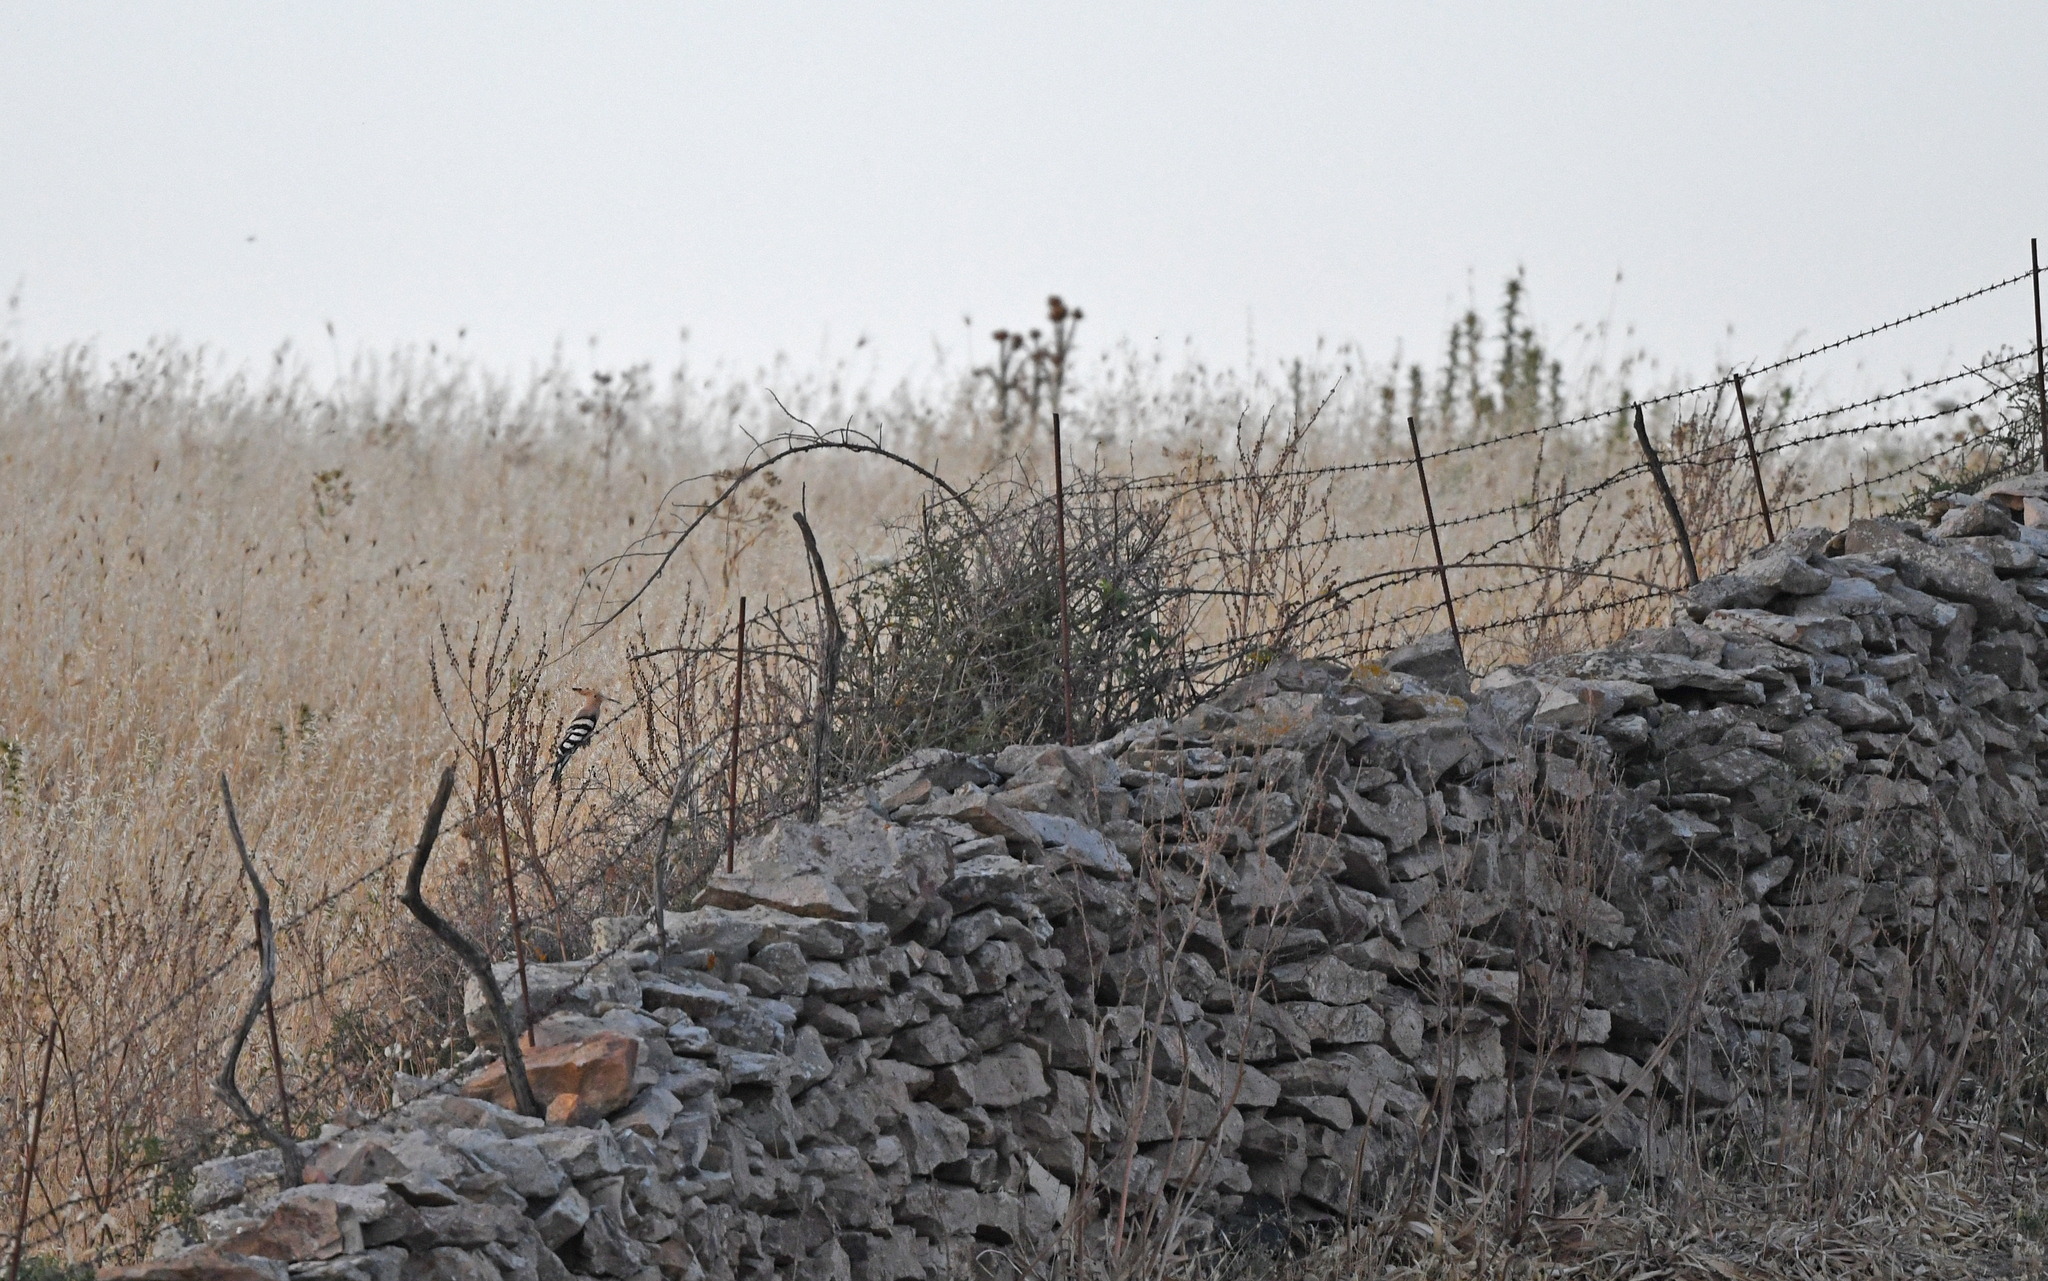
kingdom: Animalia
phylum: Chordata
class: Aves
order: Bucerotiformes
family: Upupidae
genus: Upupa
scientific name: Upupa epops
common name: Eurasian hoopoe
